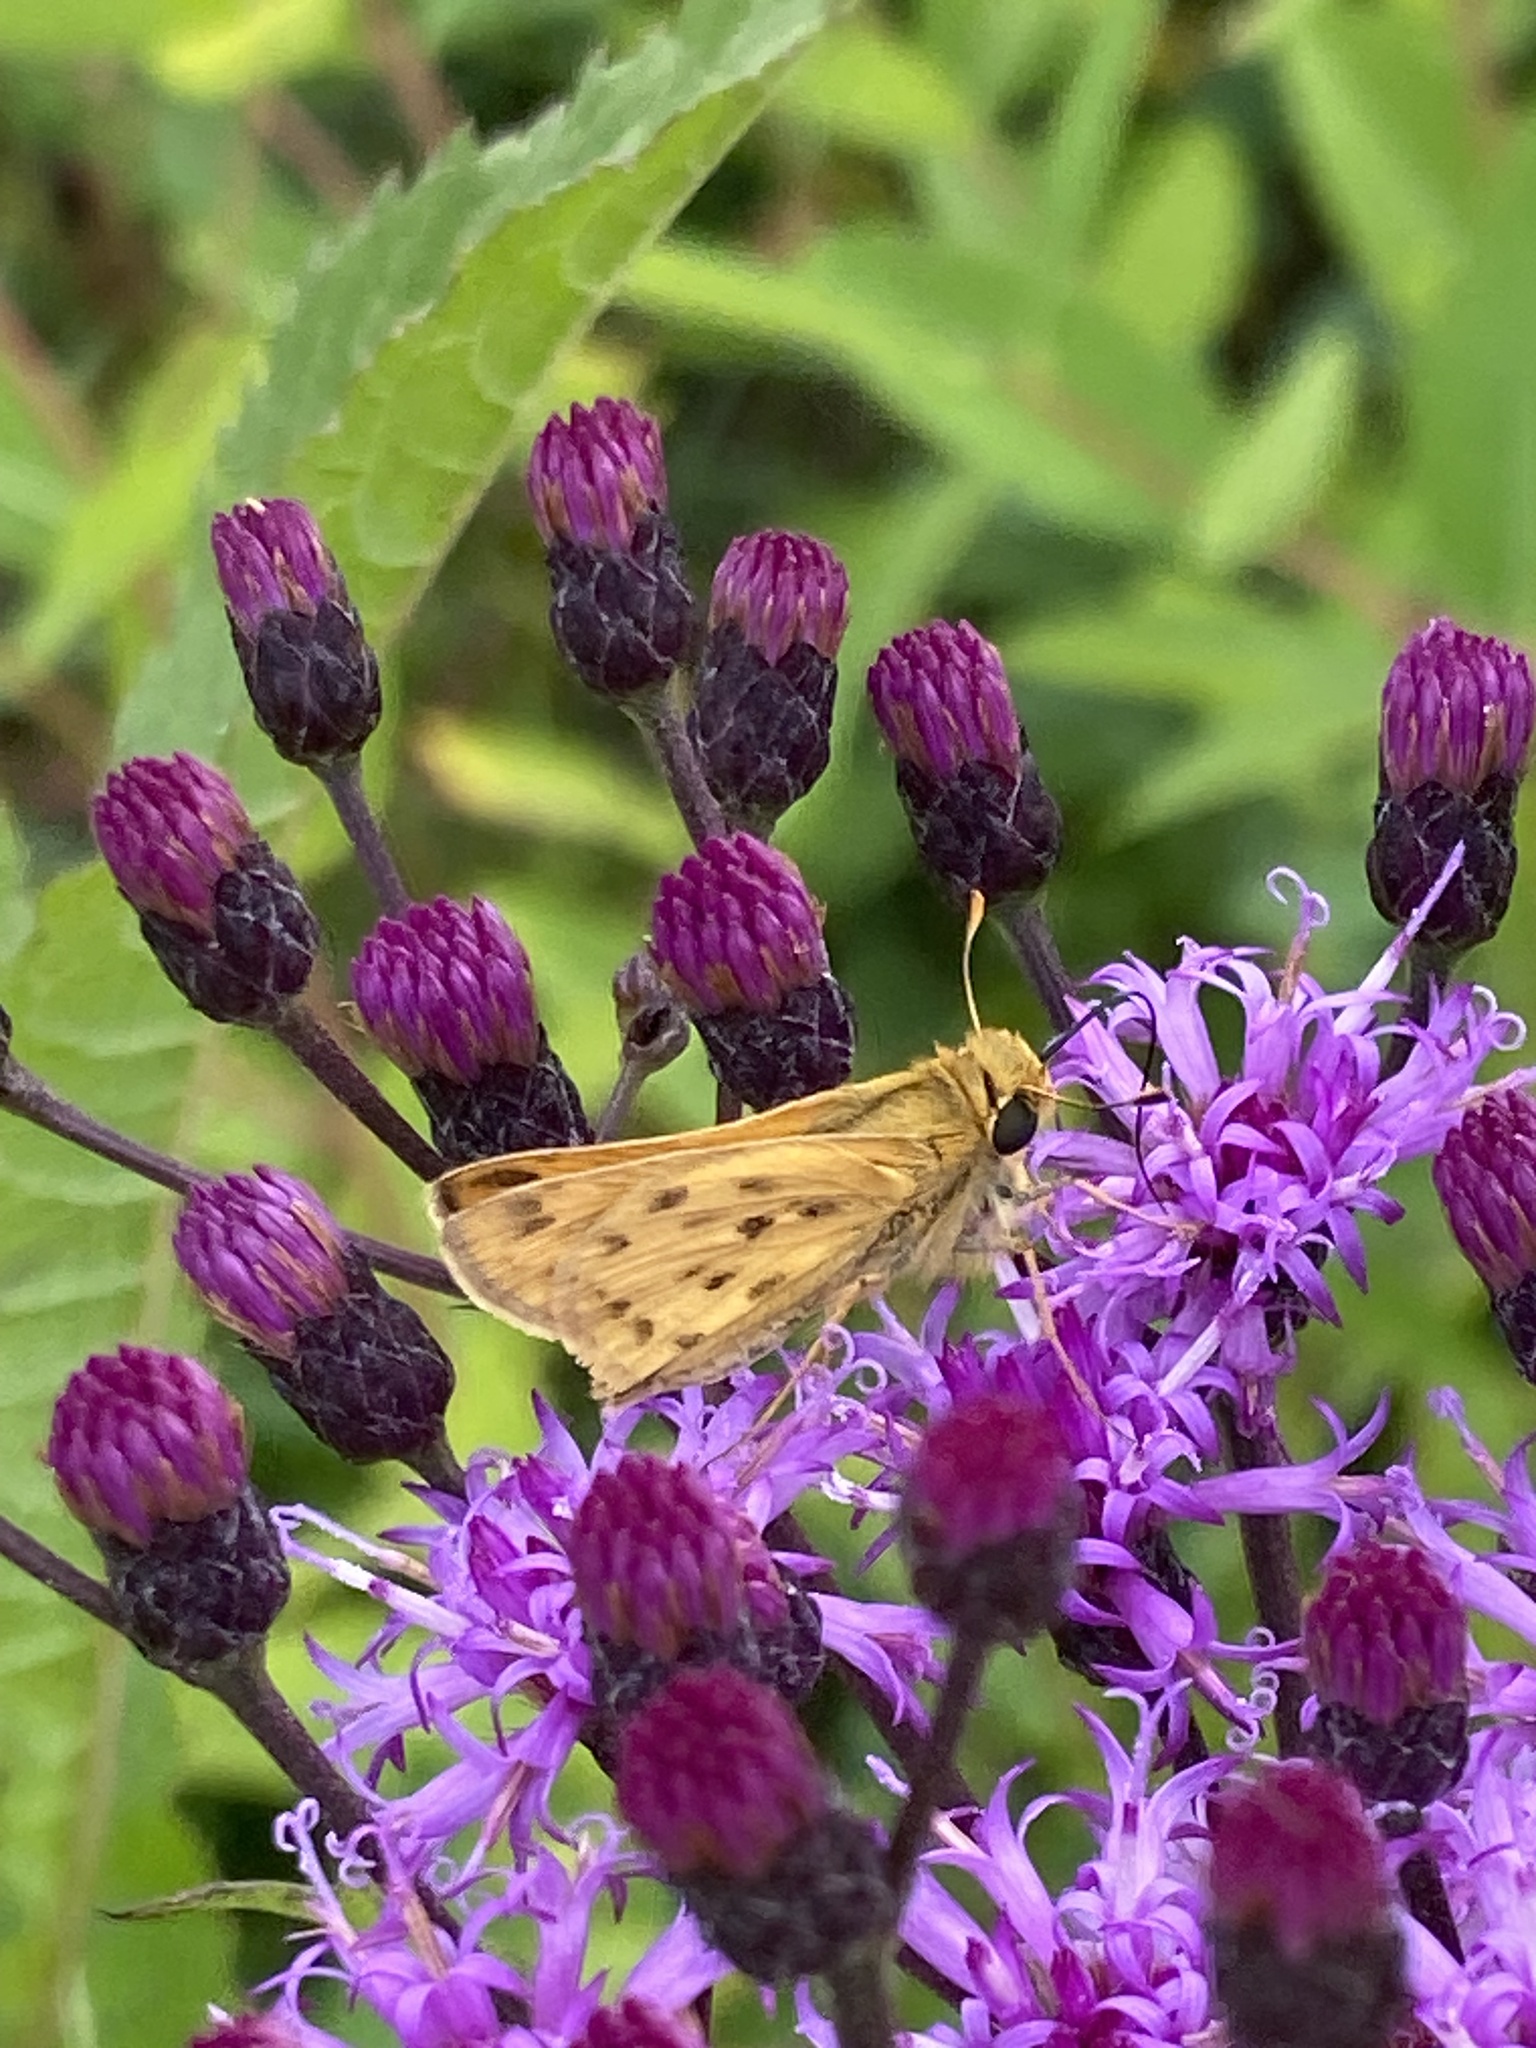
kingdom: Animalia
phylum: Arthropoda
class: Insecta
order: Lepidoptera
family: Hesperiidae
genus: Hylephila
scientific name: Hylephila phyleus
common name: Fiery skipper
